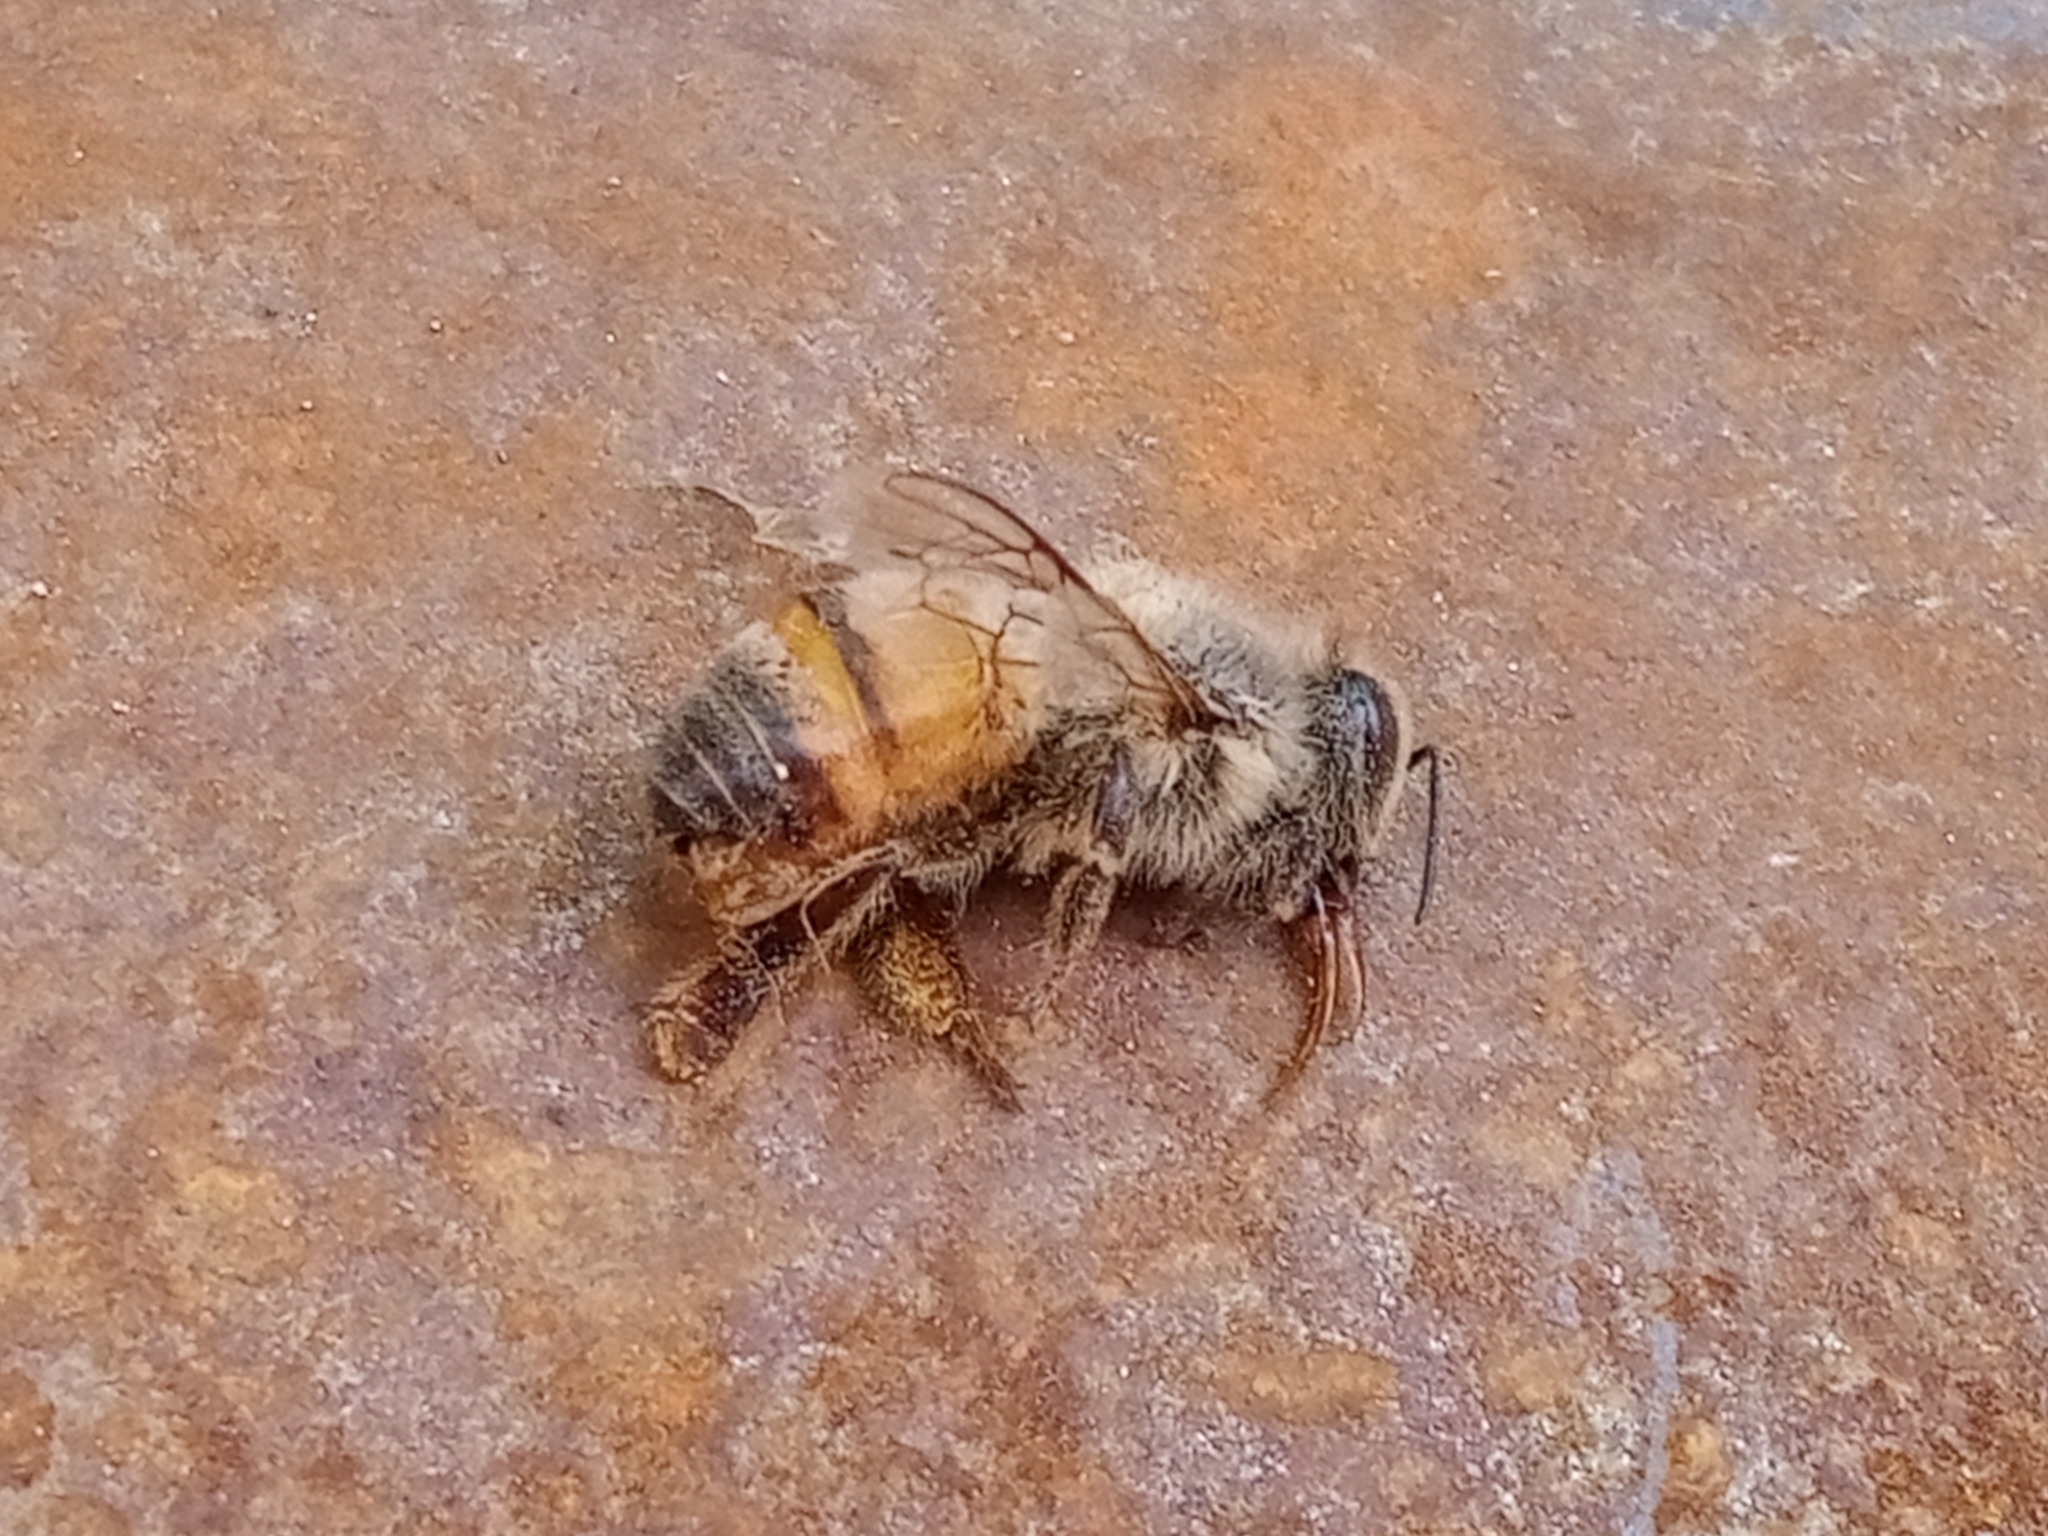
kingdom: Animalia
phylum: Arthropoda
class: Insecta
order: Hymenoptera
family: Apidae
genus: Apis
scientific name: Apis mellifera
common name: Honey bee
